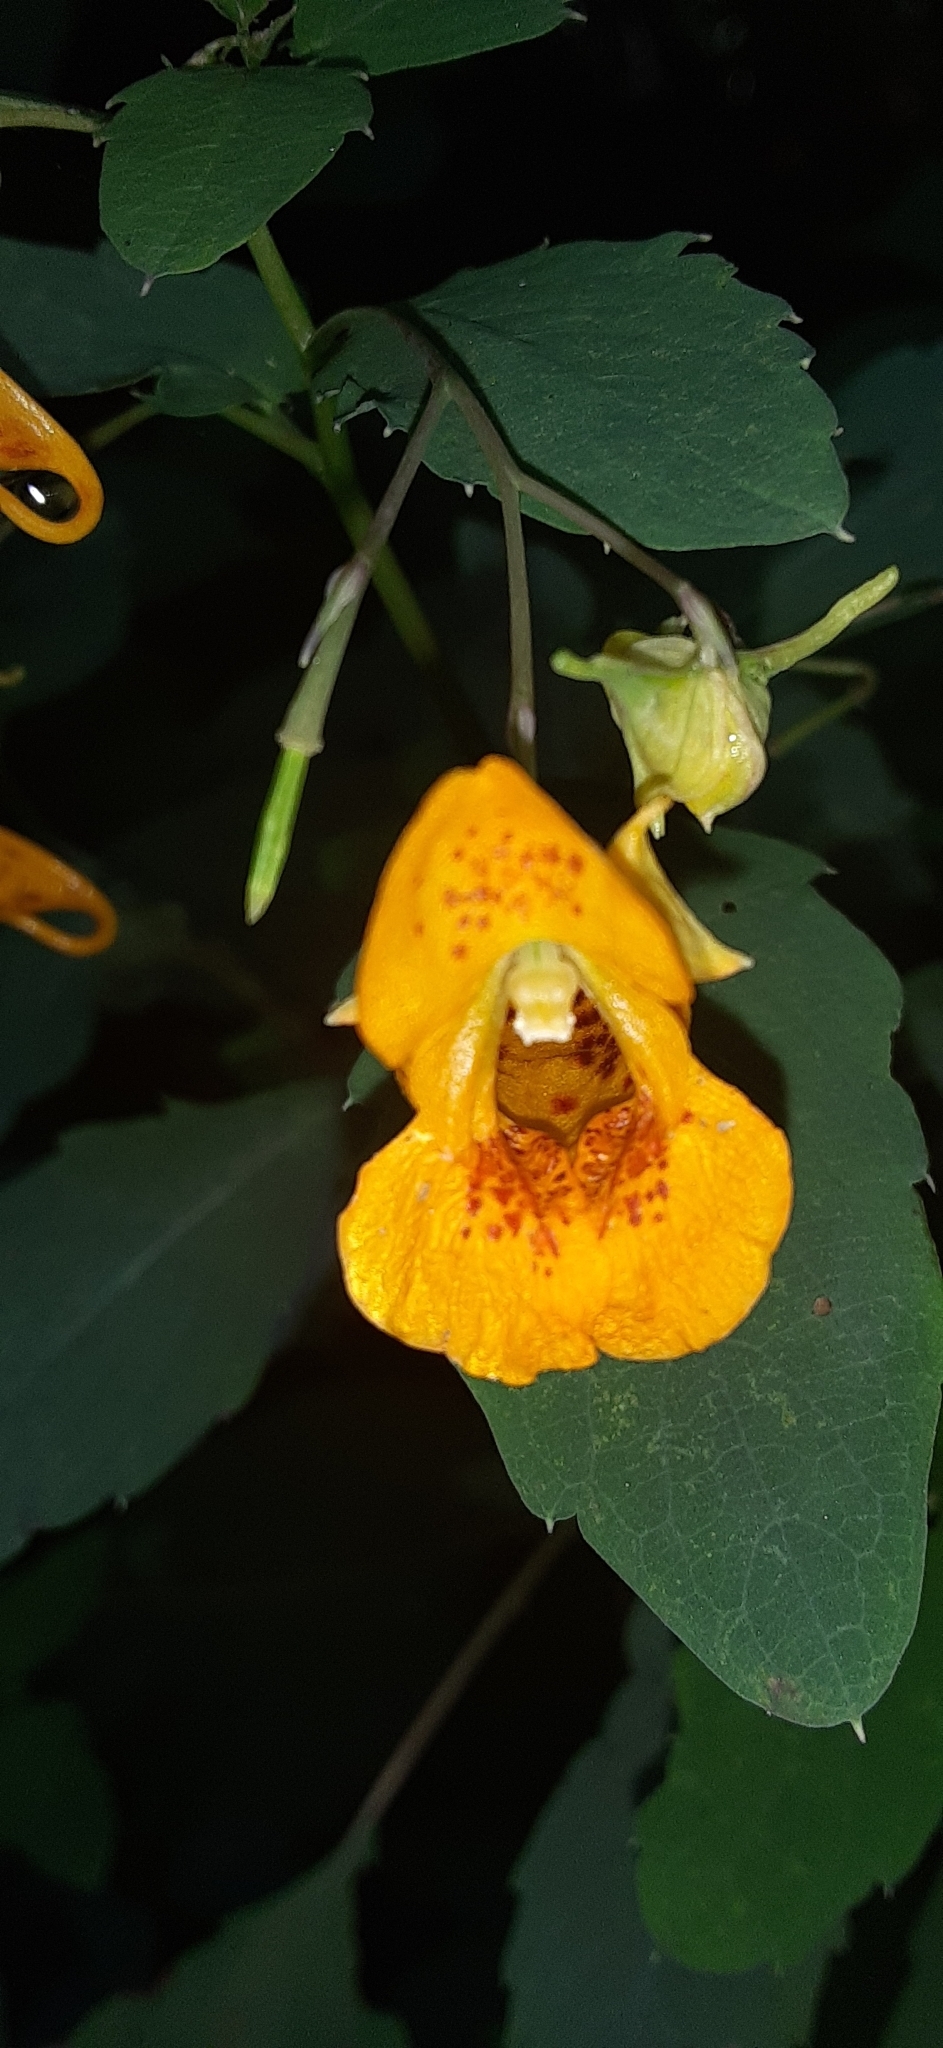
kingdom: Plantae
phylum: Tracheophyta
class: Magnoliopsida
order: Ericales
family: Balsaminaceae
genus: Impatiens
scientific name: Impatiens capensis
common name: Orange balsam
